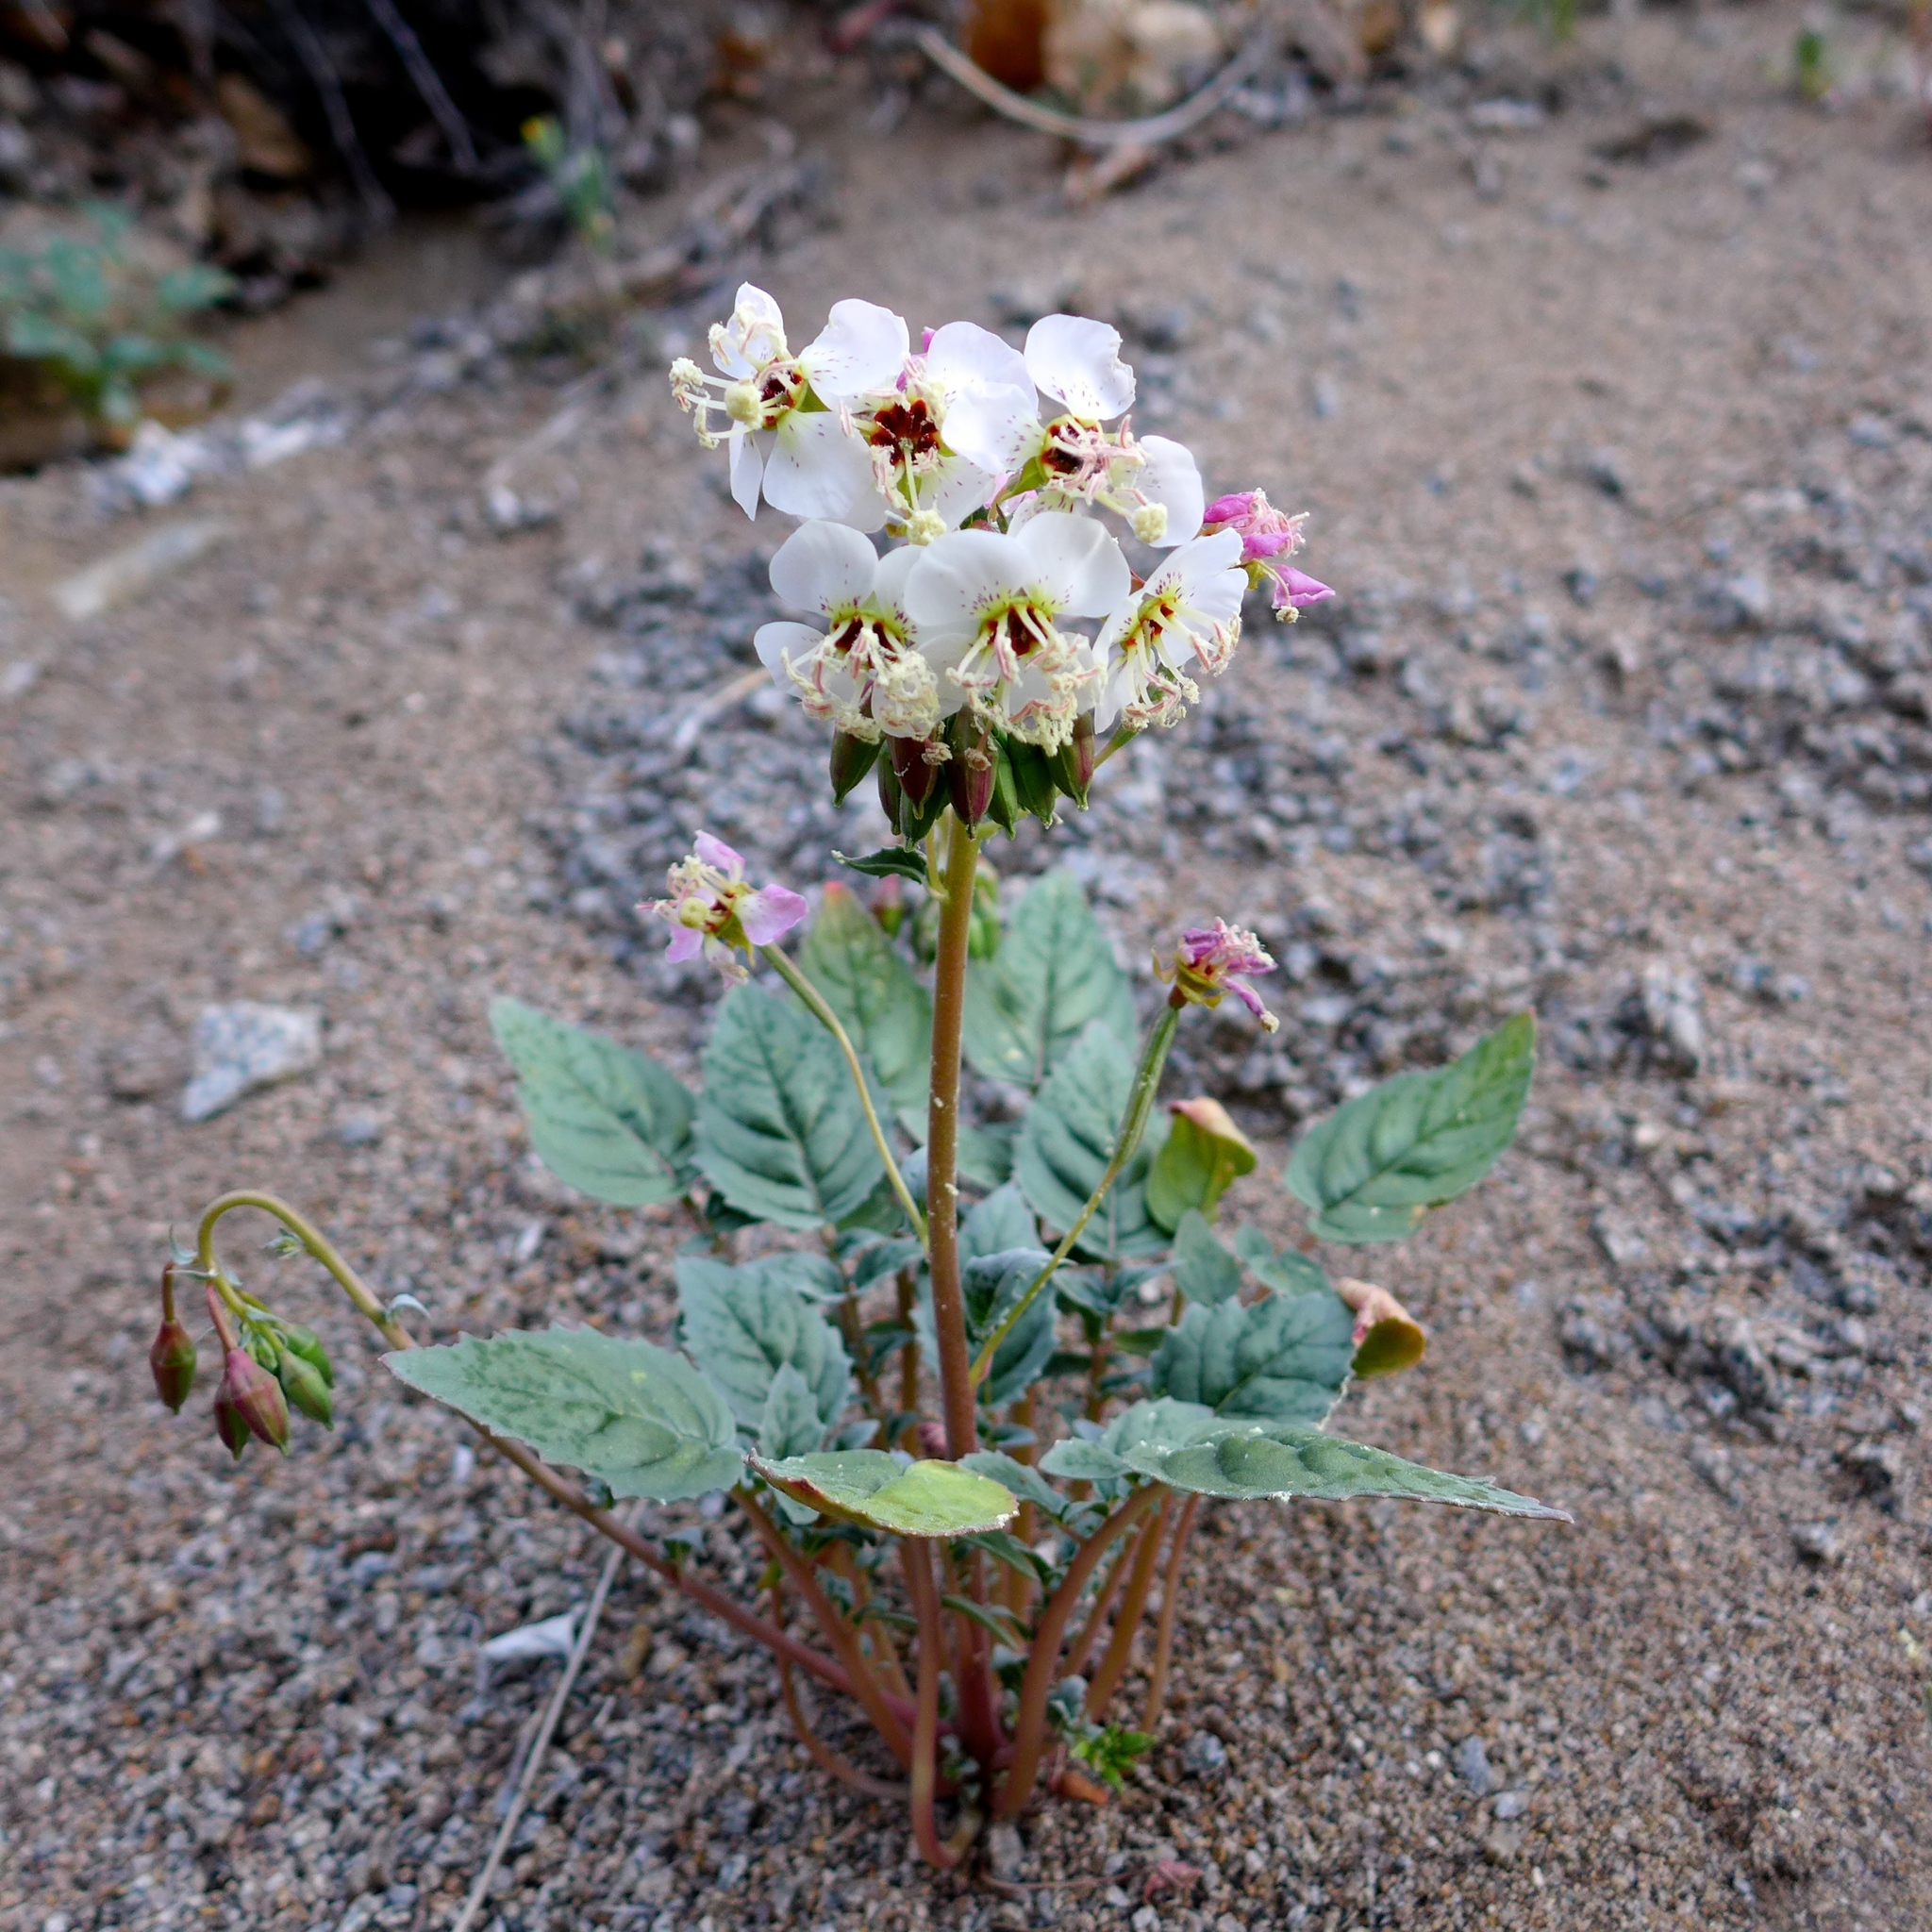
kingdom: Plantae
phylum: Tracheophyta
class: Magnoliopsida
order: Myrtales
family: Onagraceae
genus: Chylismia
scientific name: Chylismia claviformis
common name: Browneyes
